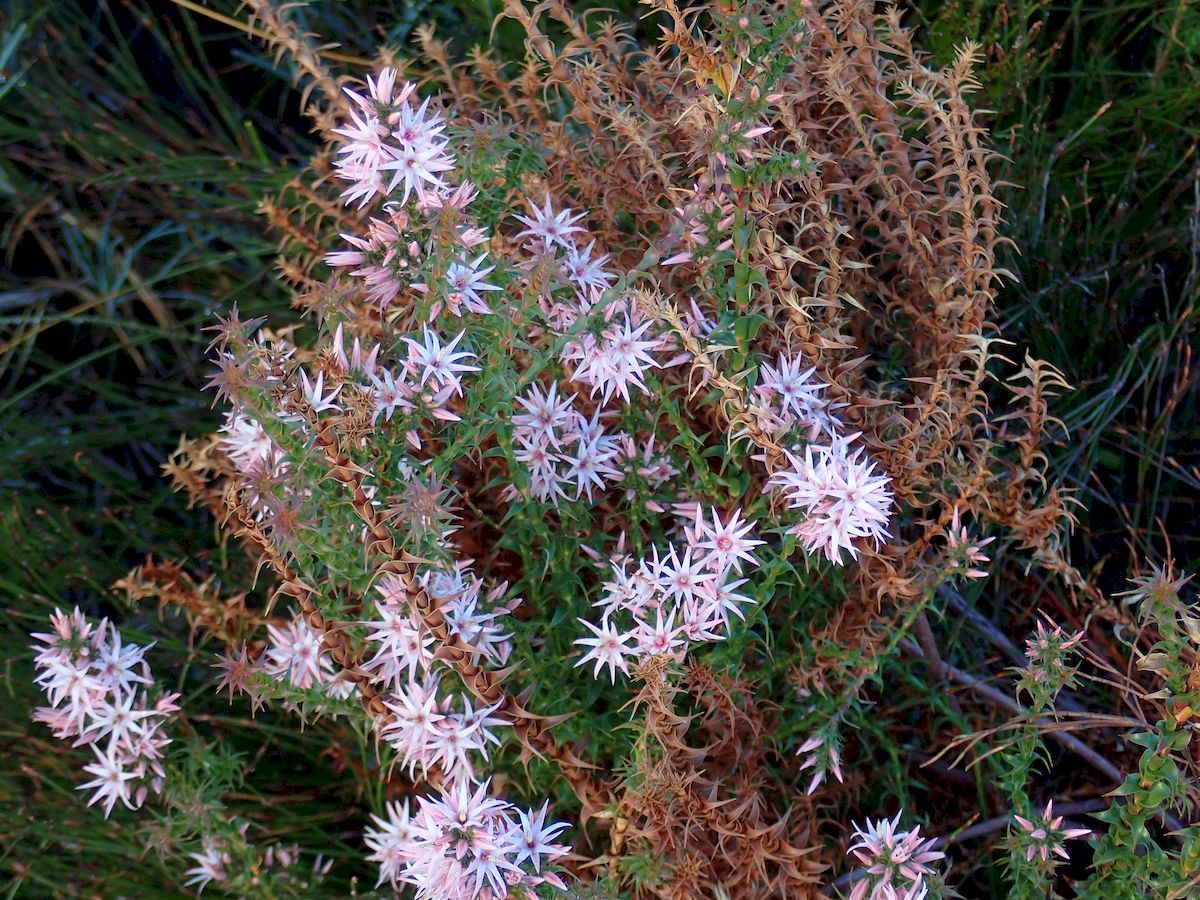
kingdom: Plantae
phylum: Tracheophyta
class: Magnoliopsida
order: Ericales
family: Ericaceae
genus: Sprengelia
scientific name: Sprengelia incarnata
